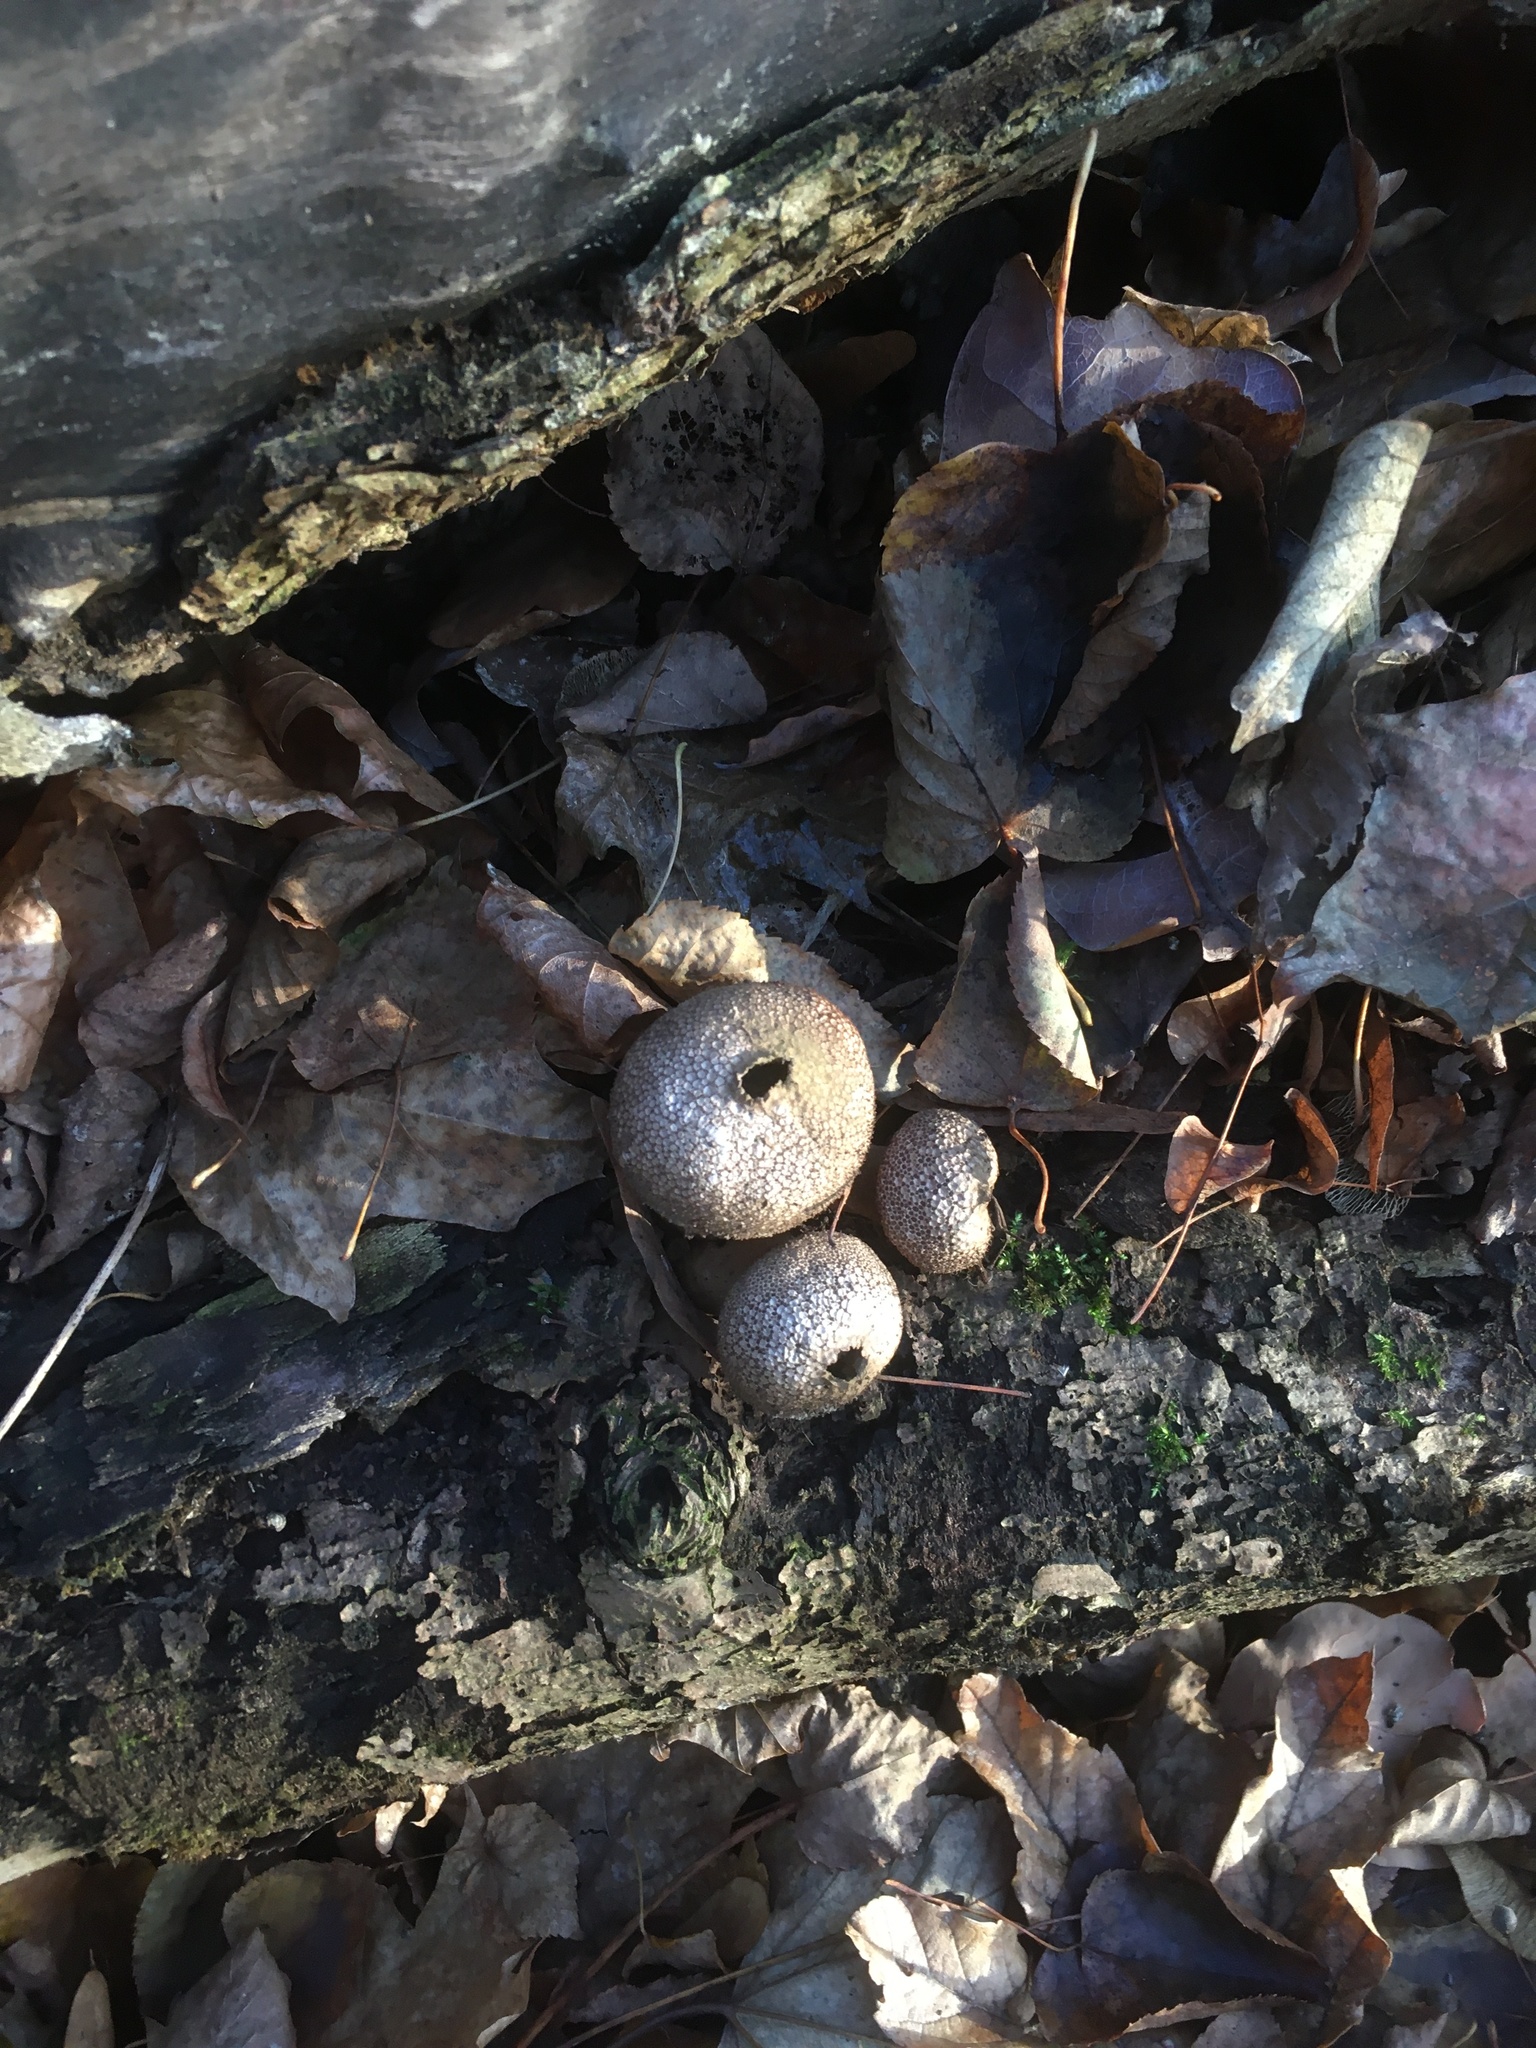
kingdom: Fungi
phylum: Basidiomycota
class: Agaricomycetes
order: Agaricales
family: Lycoperdaceae
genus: Lycoperdon
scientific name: Lycoperdon perlatum
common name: Common puffball
